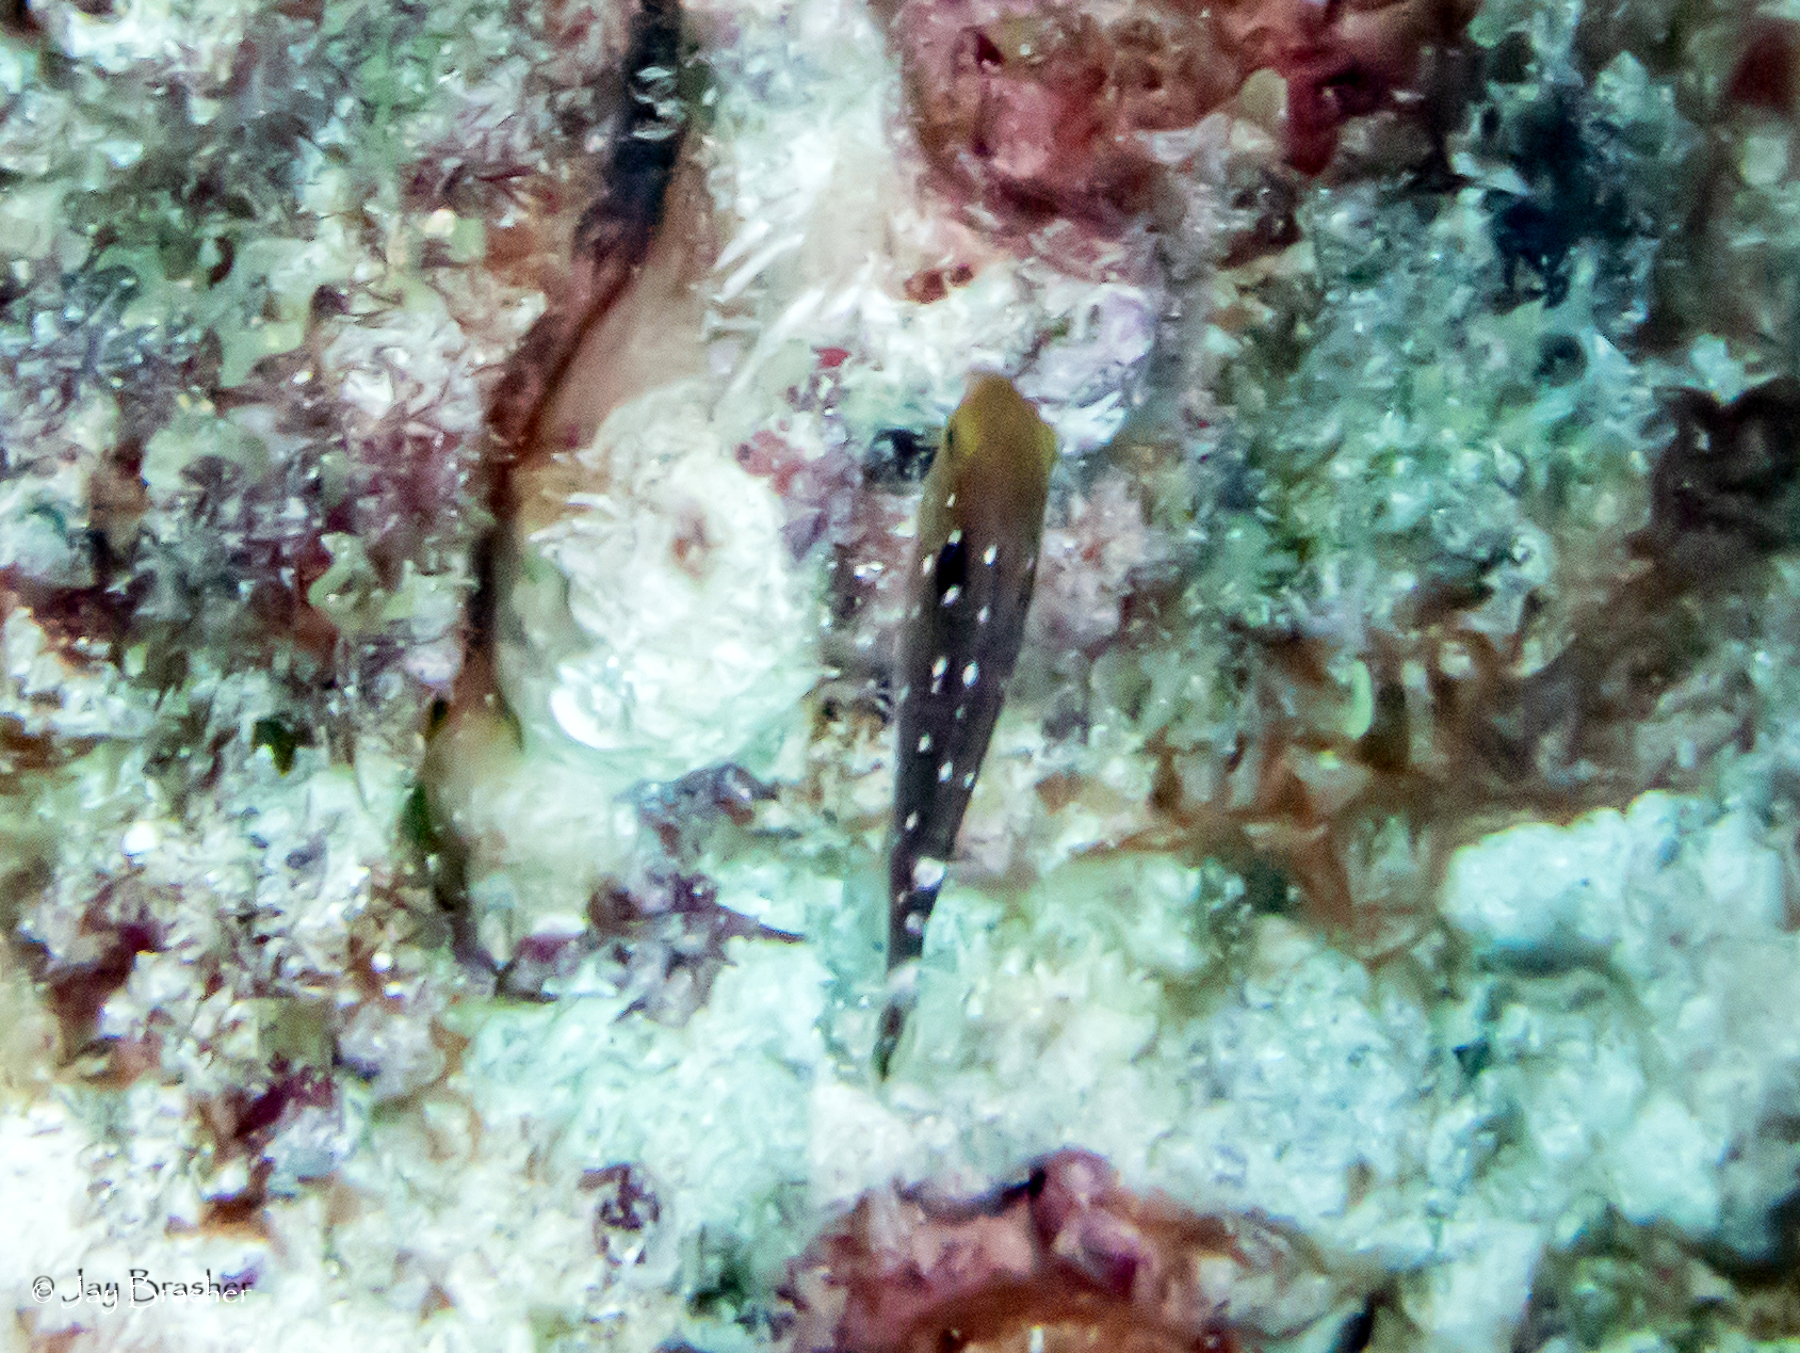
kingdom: Animalia
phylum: Chordata
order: Perciformes
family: Scaridae
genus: Sparisoma
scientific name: Sparisoma viride
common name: Stoplight parrotfish
